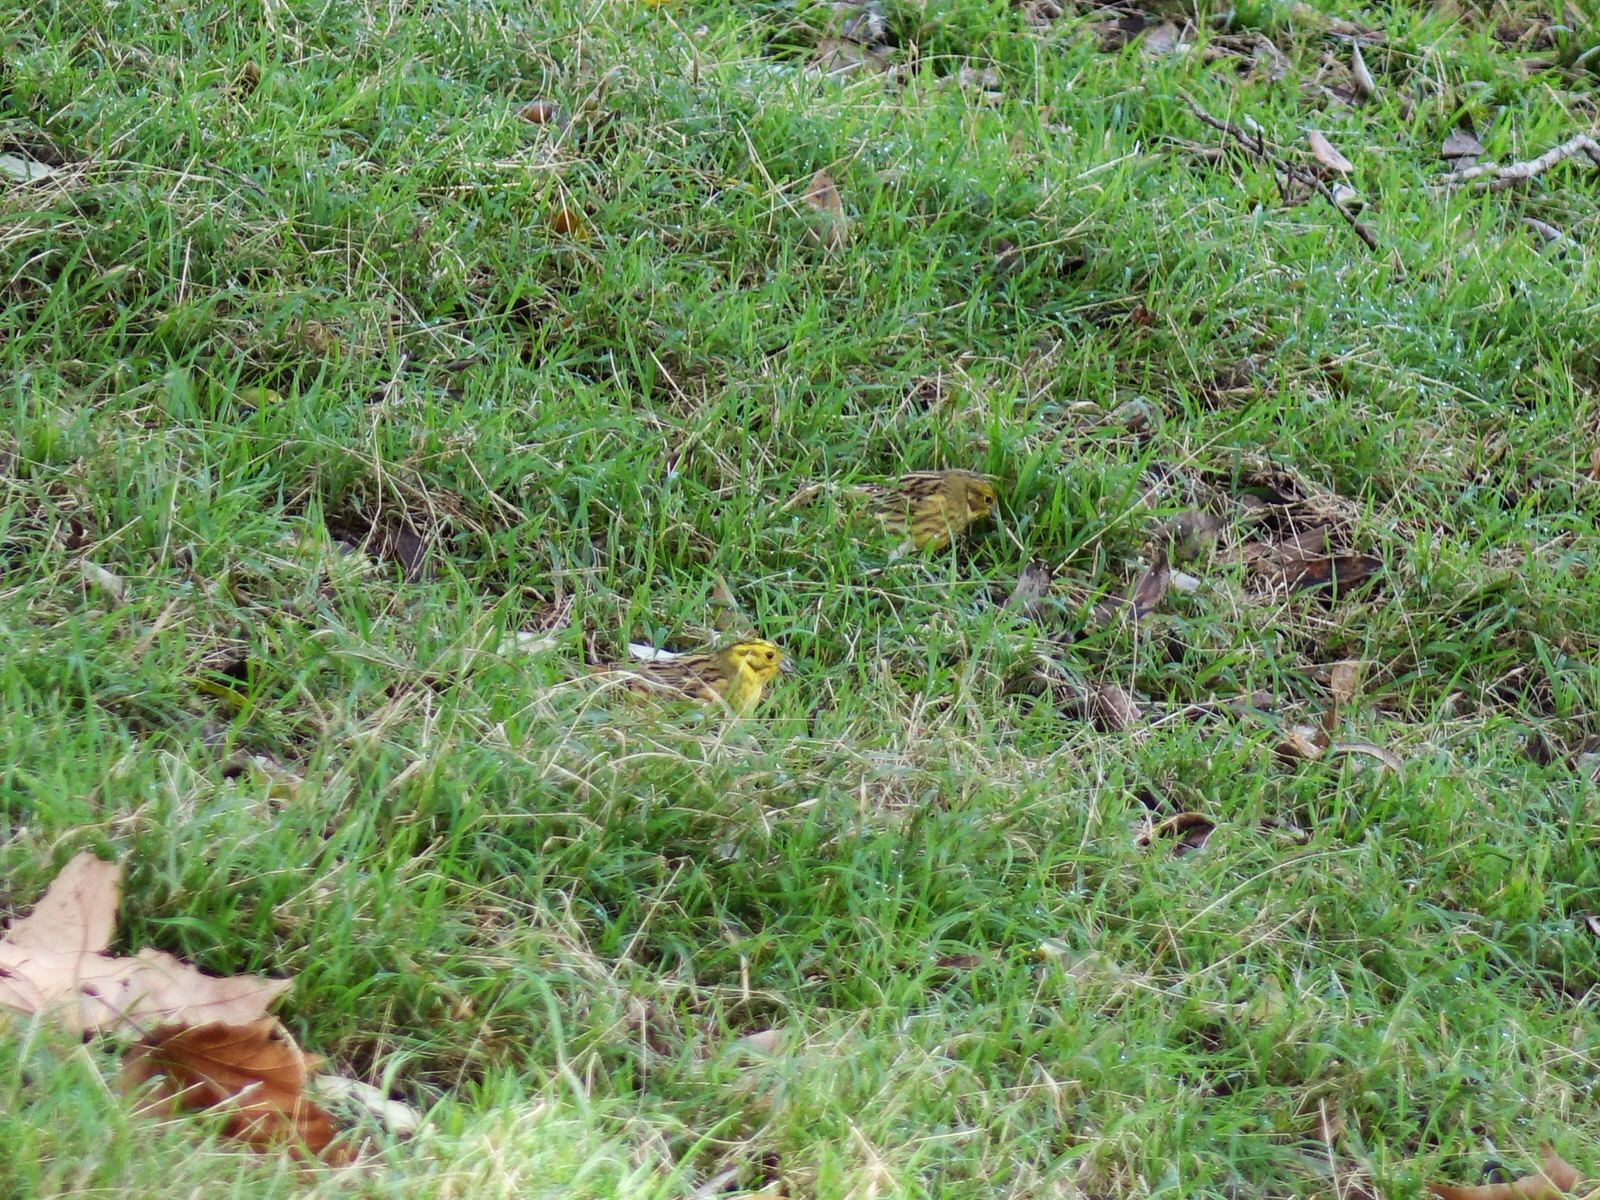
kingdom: Animalia
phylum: Chordata
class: Aves
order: Passeriformes
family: Emberizidae
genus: Emberiza
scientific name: Emberiza citrinella
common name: Yellowhammer
